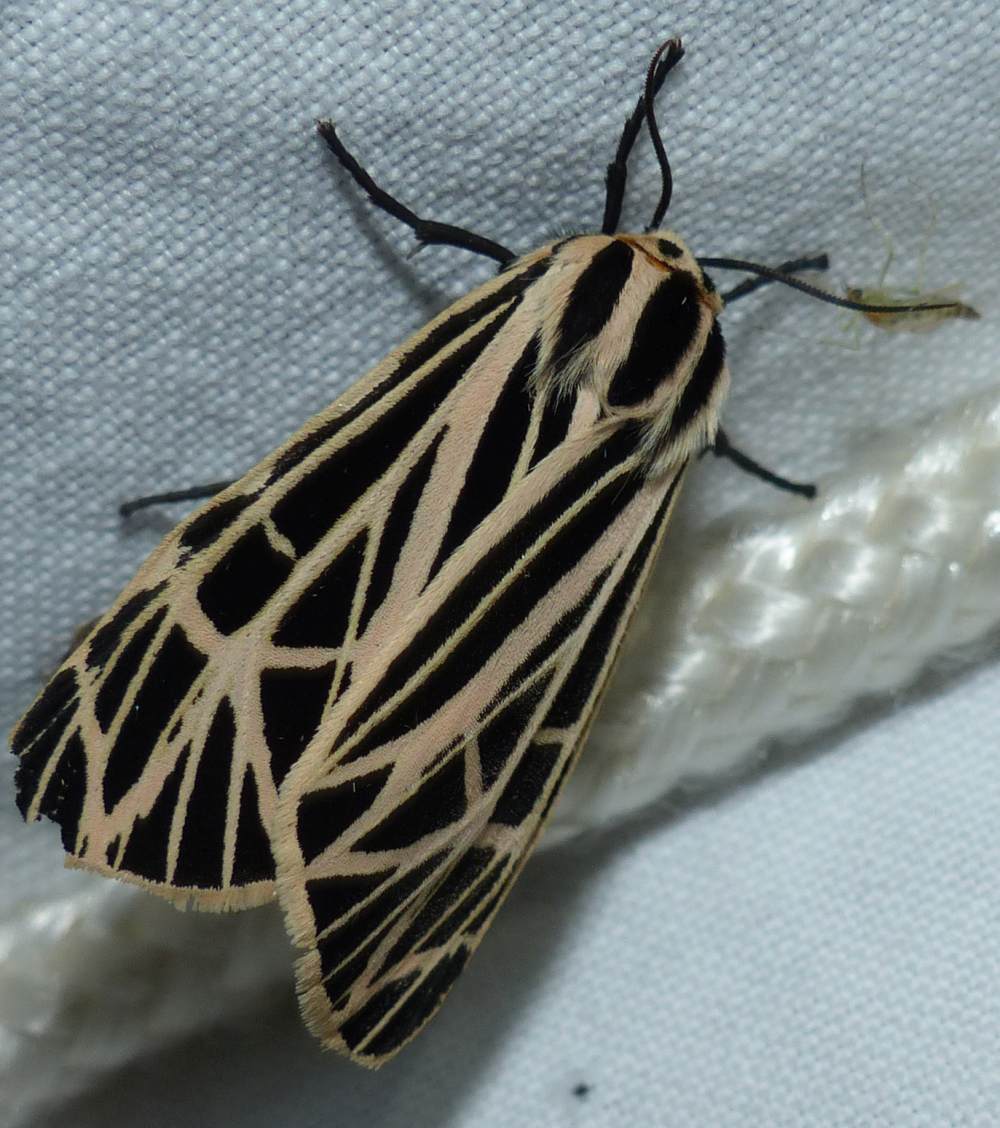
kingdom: Animalia
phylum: Arthropoda
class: Insecta
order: Lepidoptera
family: Erebidae
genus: Grammia
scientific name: Grammia virgo
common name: Virgin tiger moth
